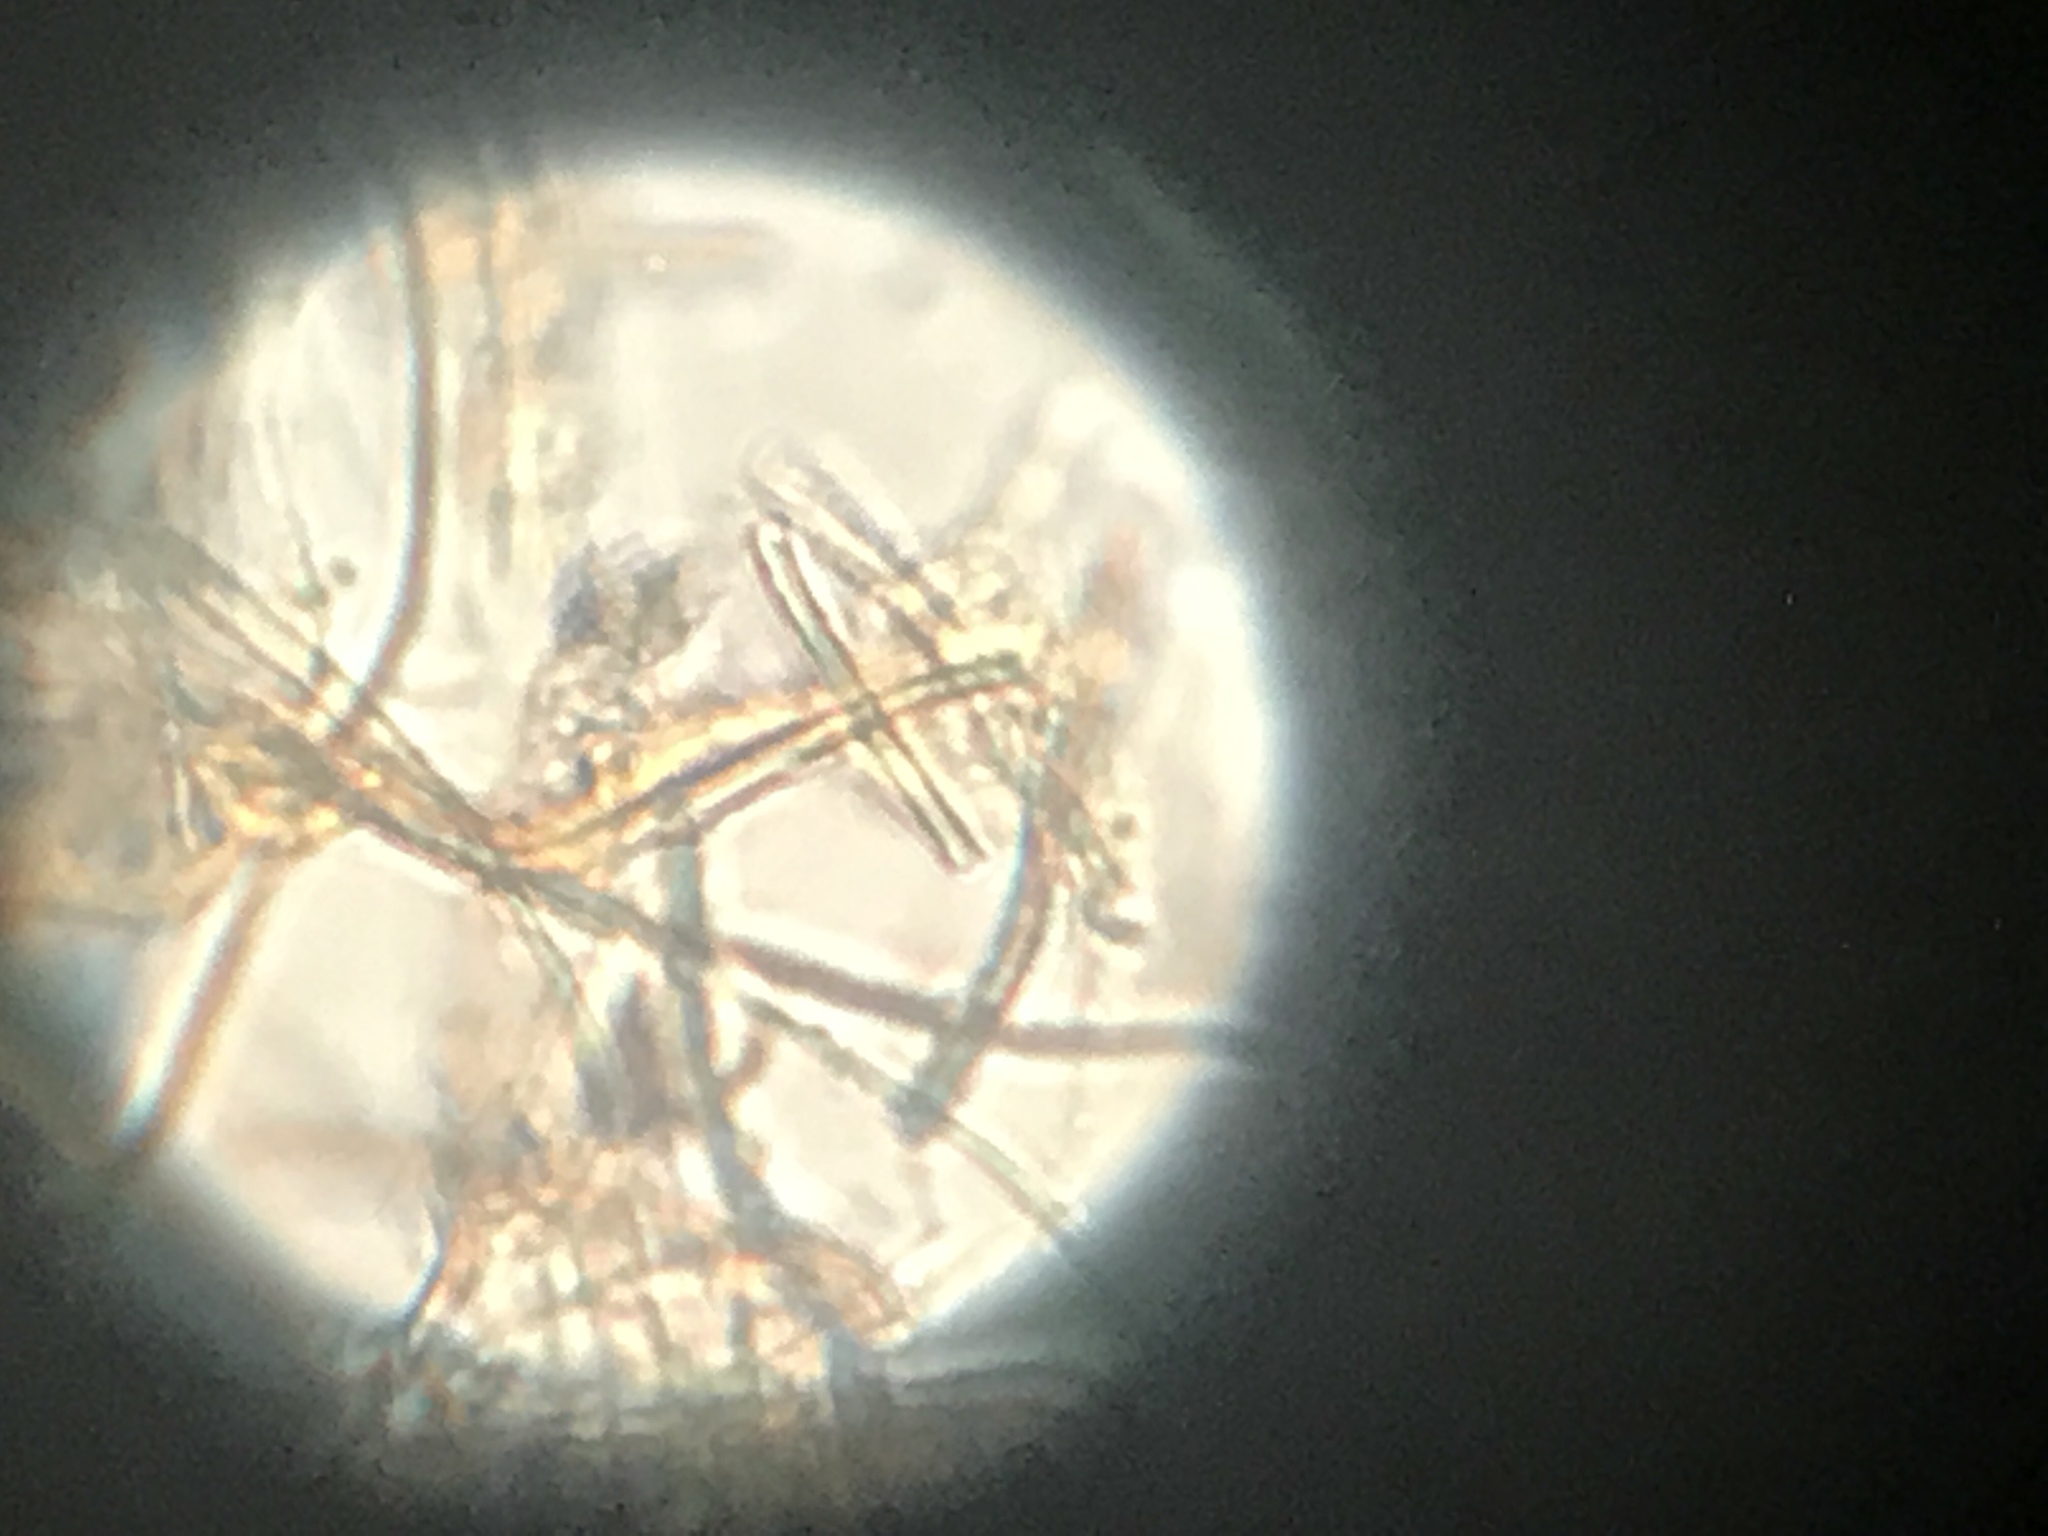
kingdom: Bacteria
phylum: Cyanobacteria
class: Cyanobacteriia
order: Cyanobacteriales
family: Oscillatoriaceae
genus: Leptothrix
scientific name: Leptothrix ochracea
